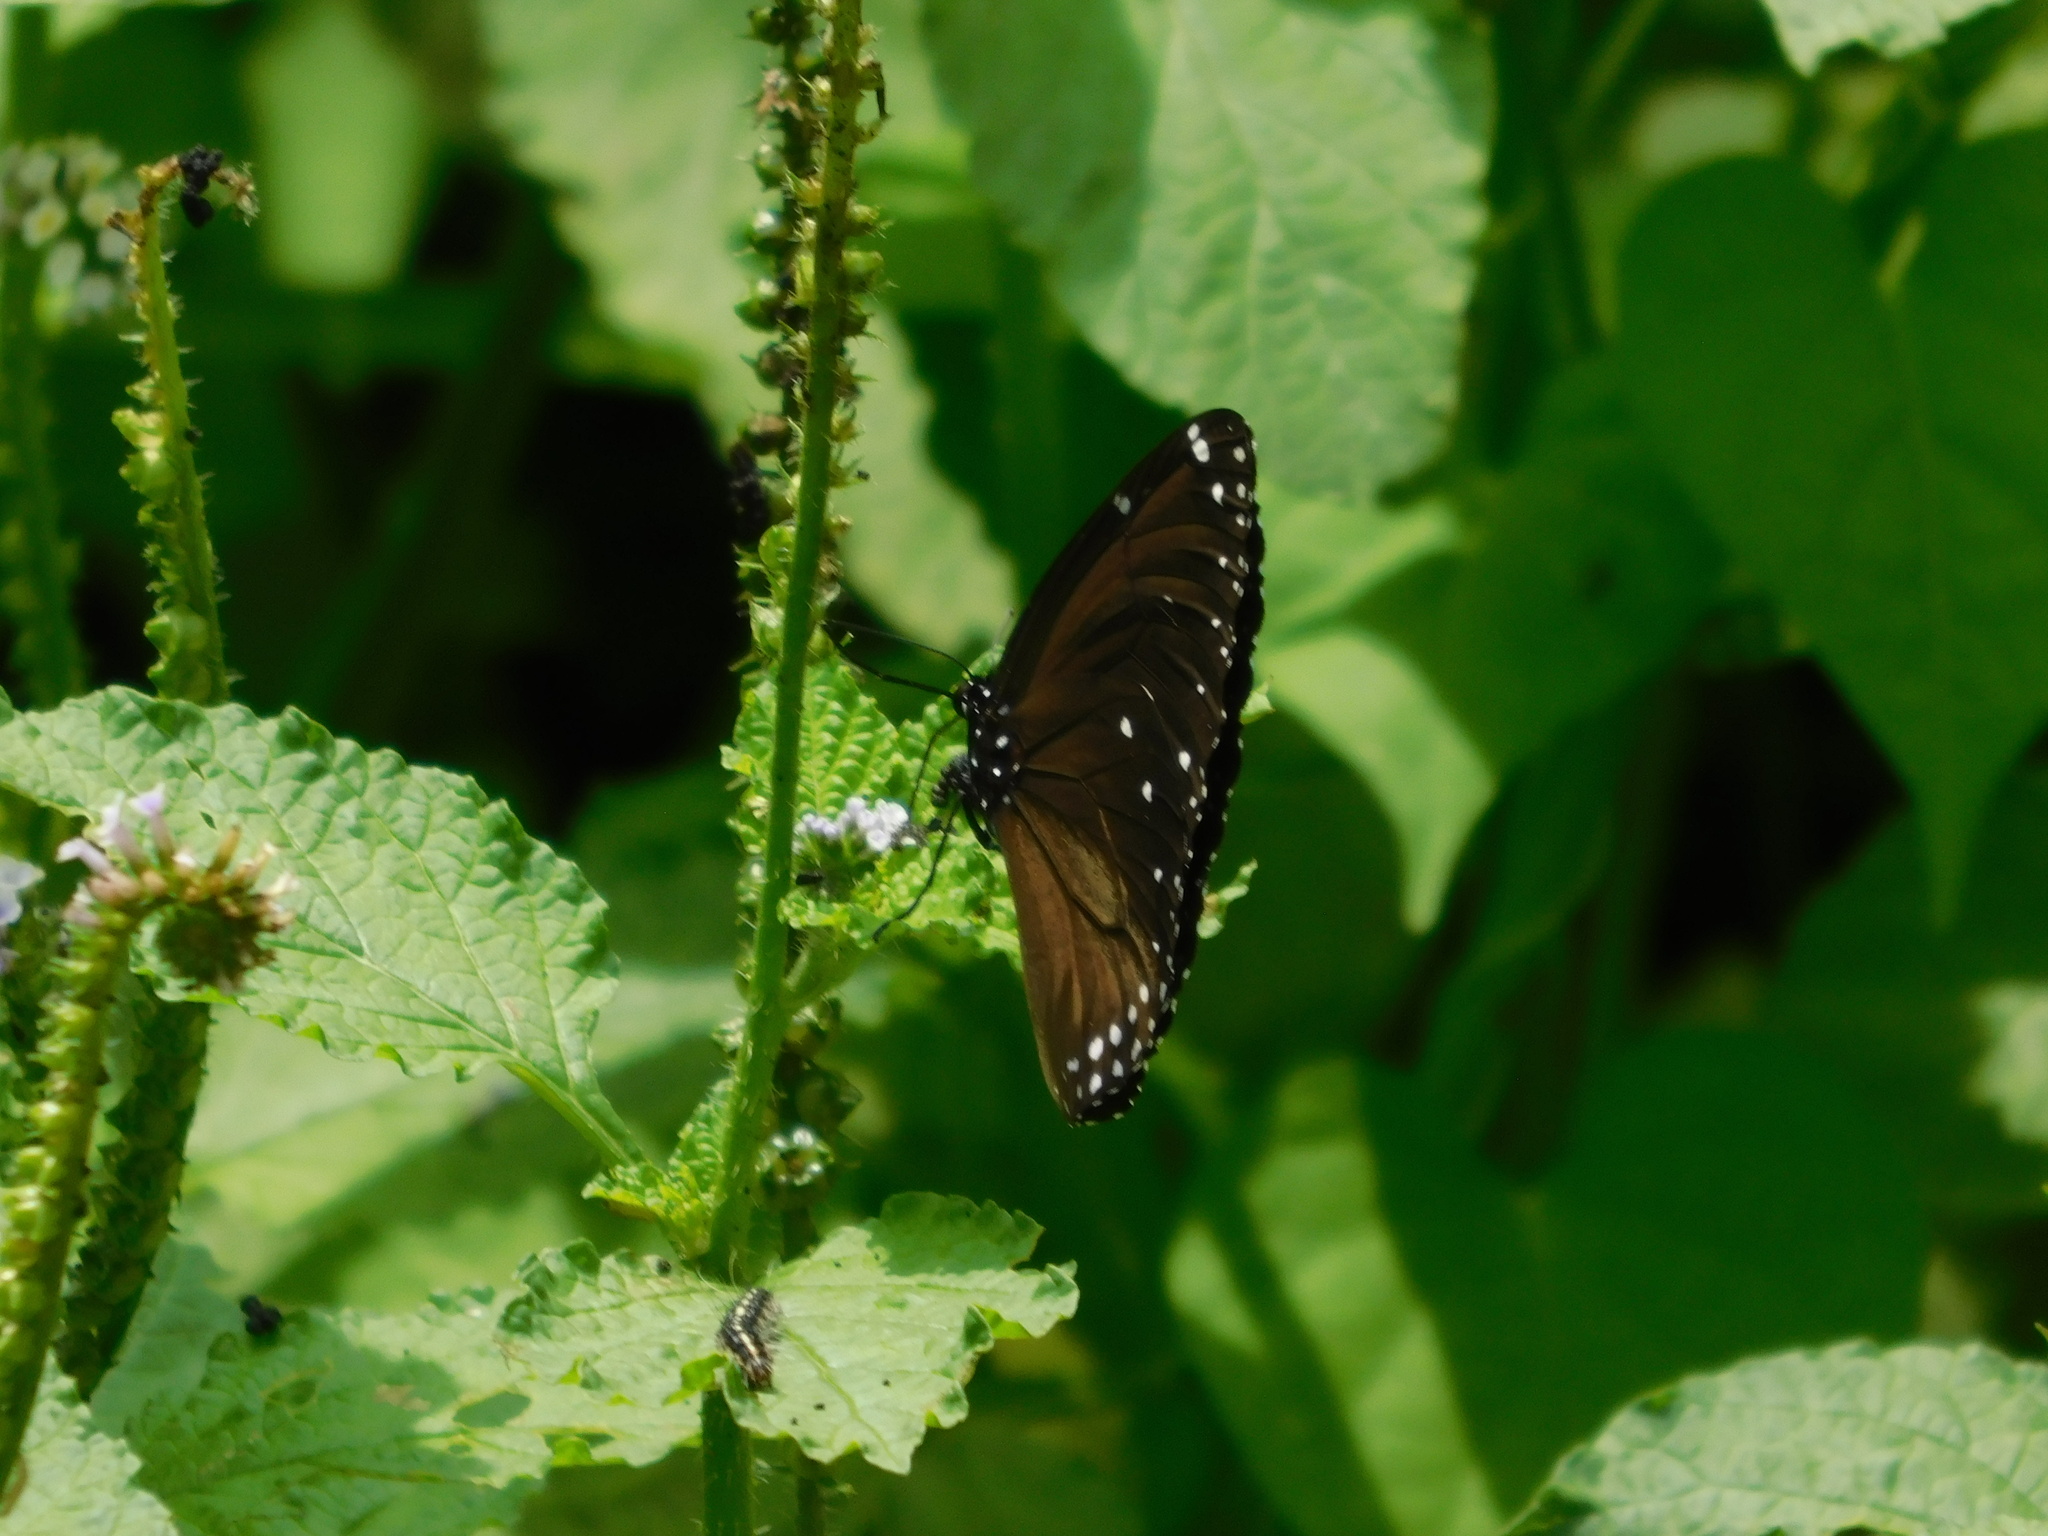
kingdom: Animalia
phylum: Arthropoda
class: Insecta
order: Lepidoptera
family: Nymphalidae
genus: Euploea
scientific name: Euploea eunice
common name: Blue-banded king crow butterfly
